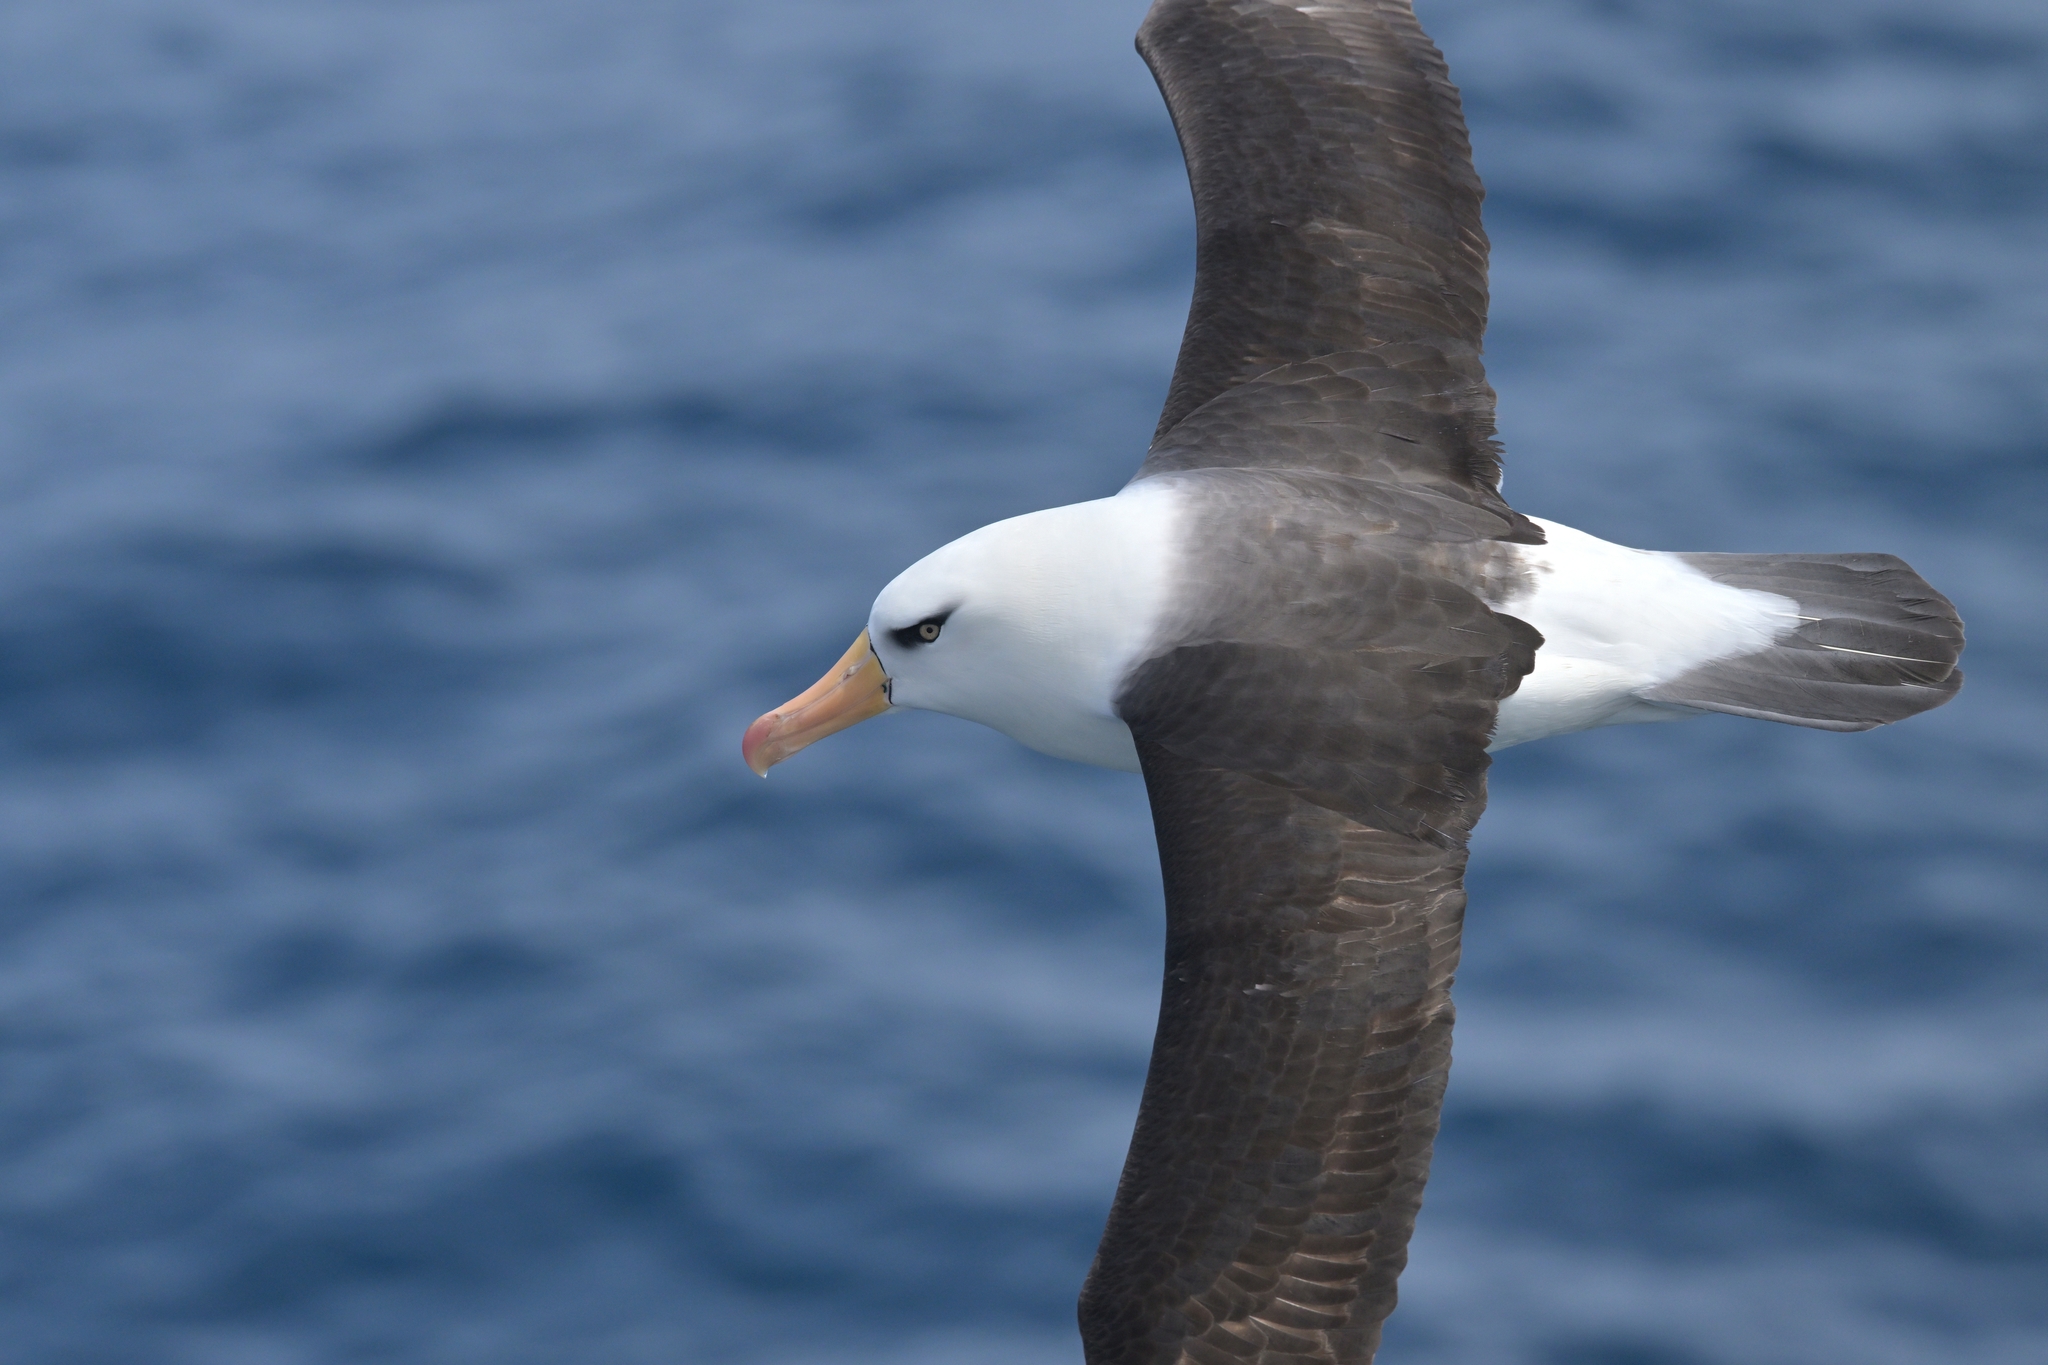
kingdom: Animalia
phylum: Chordata
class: Aves
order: Procellariiformes
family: Diomedeidae
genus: Thalassarche
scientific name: Thalassarche impavida
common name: Campbell albatross
